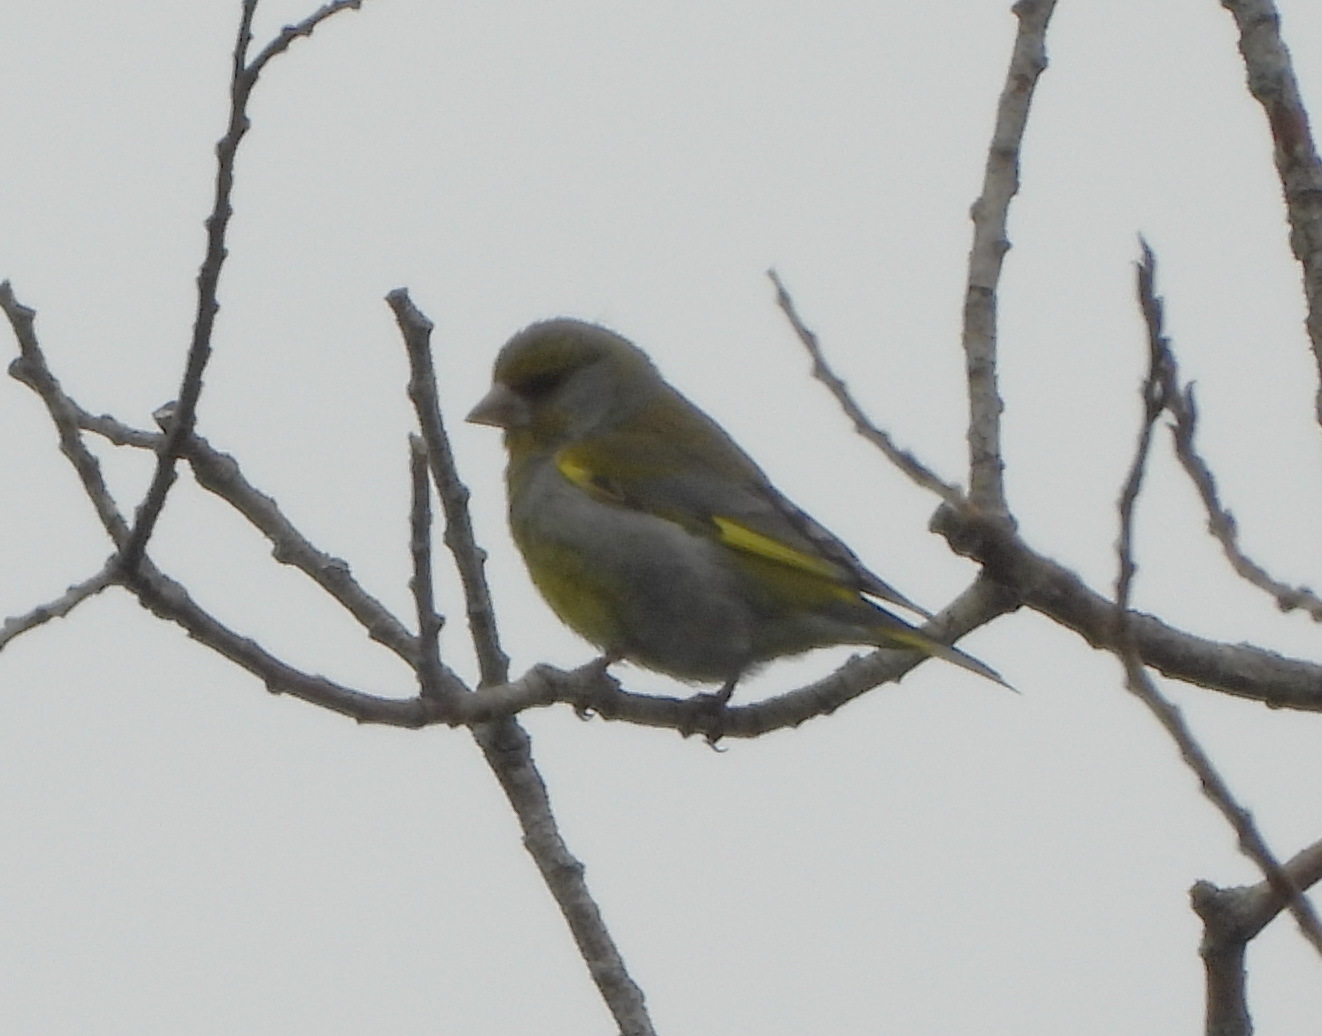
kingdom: Plantae
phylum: Tracheophyta
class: Liliopsida
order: Poales
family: Poaceae
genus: Chloris
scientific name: Chloris chloris
